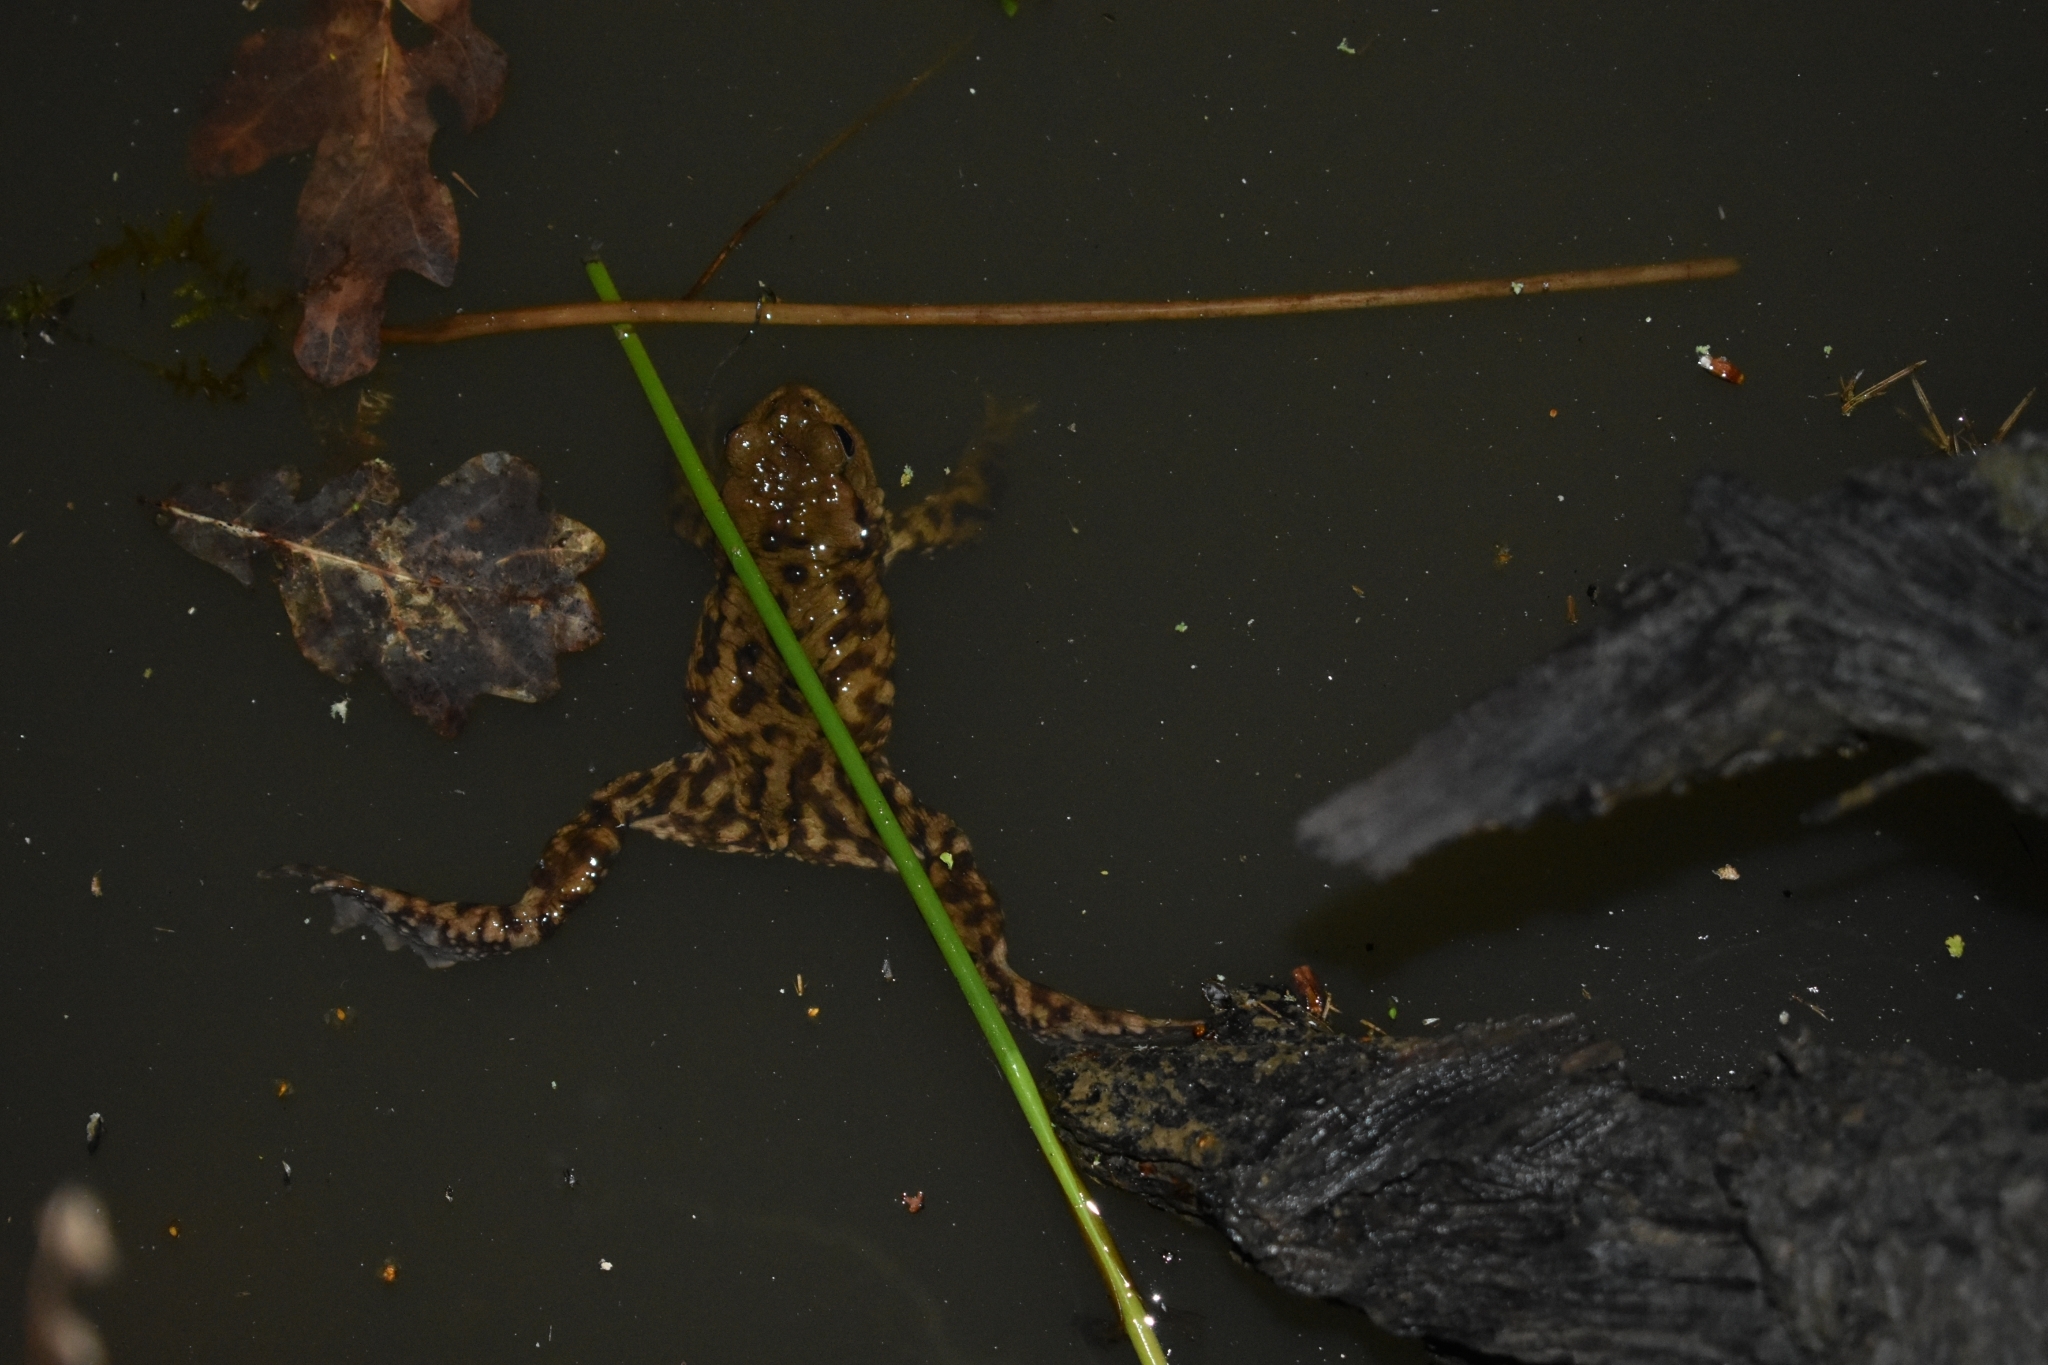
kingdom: Animalia
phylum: Chordata
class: Amphibia
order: Anura
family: Bufonidae
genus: Bufo
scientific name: Bufo bufo
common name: Common toad
